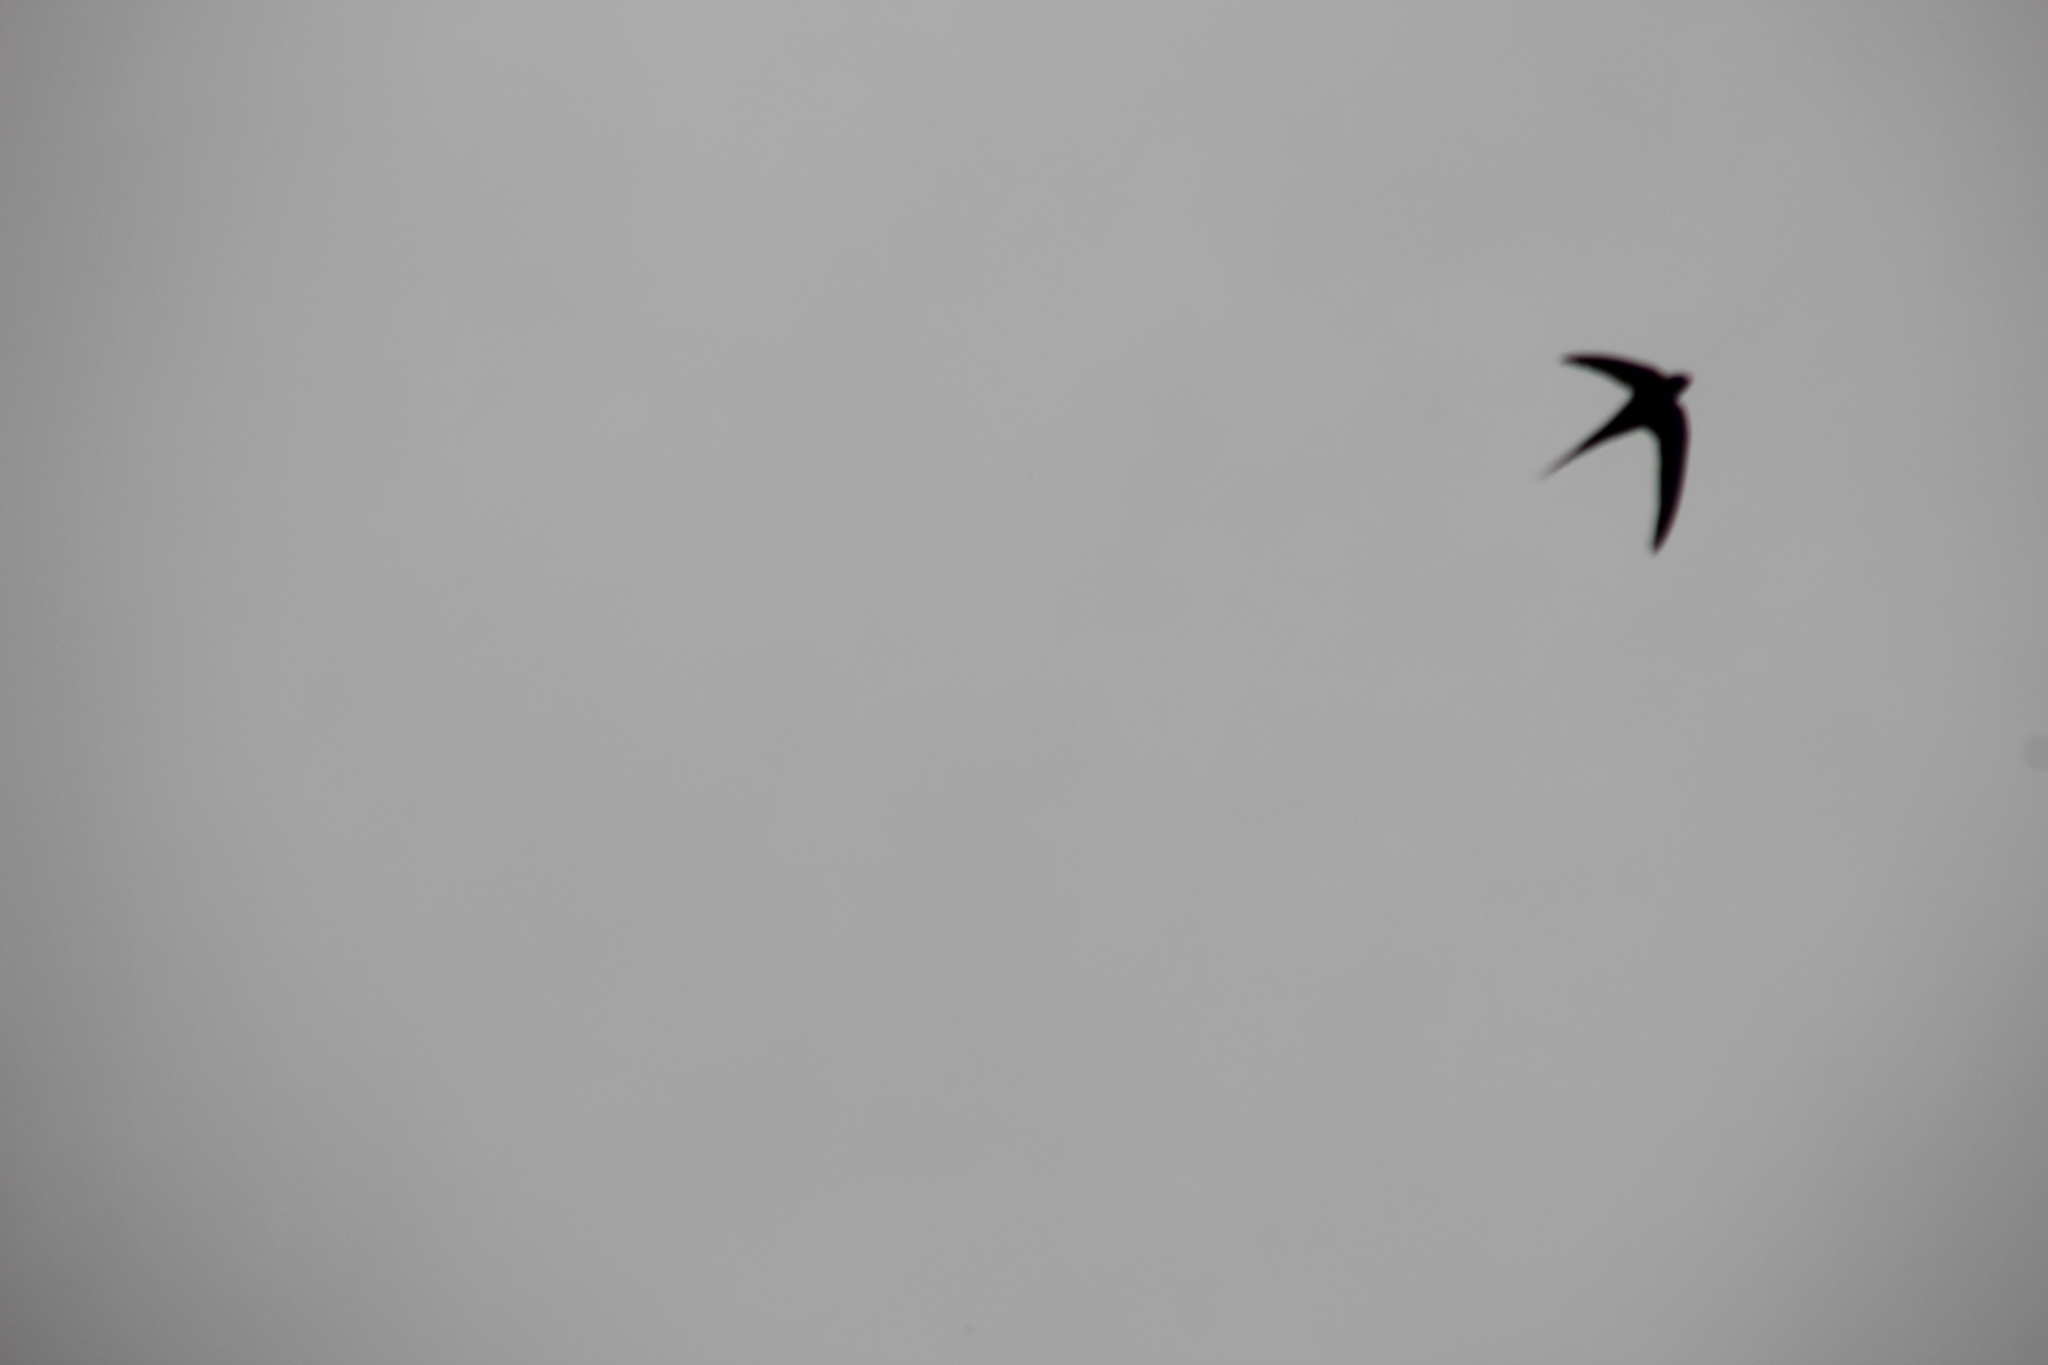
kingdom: Animalia
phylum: Chordata
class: Aves
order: Apodiformes
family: Apodidae
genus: Cypsiurus
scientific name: Cypsiurus parvus
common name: African palm swift
